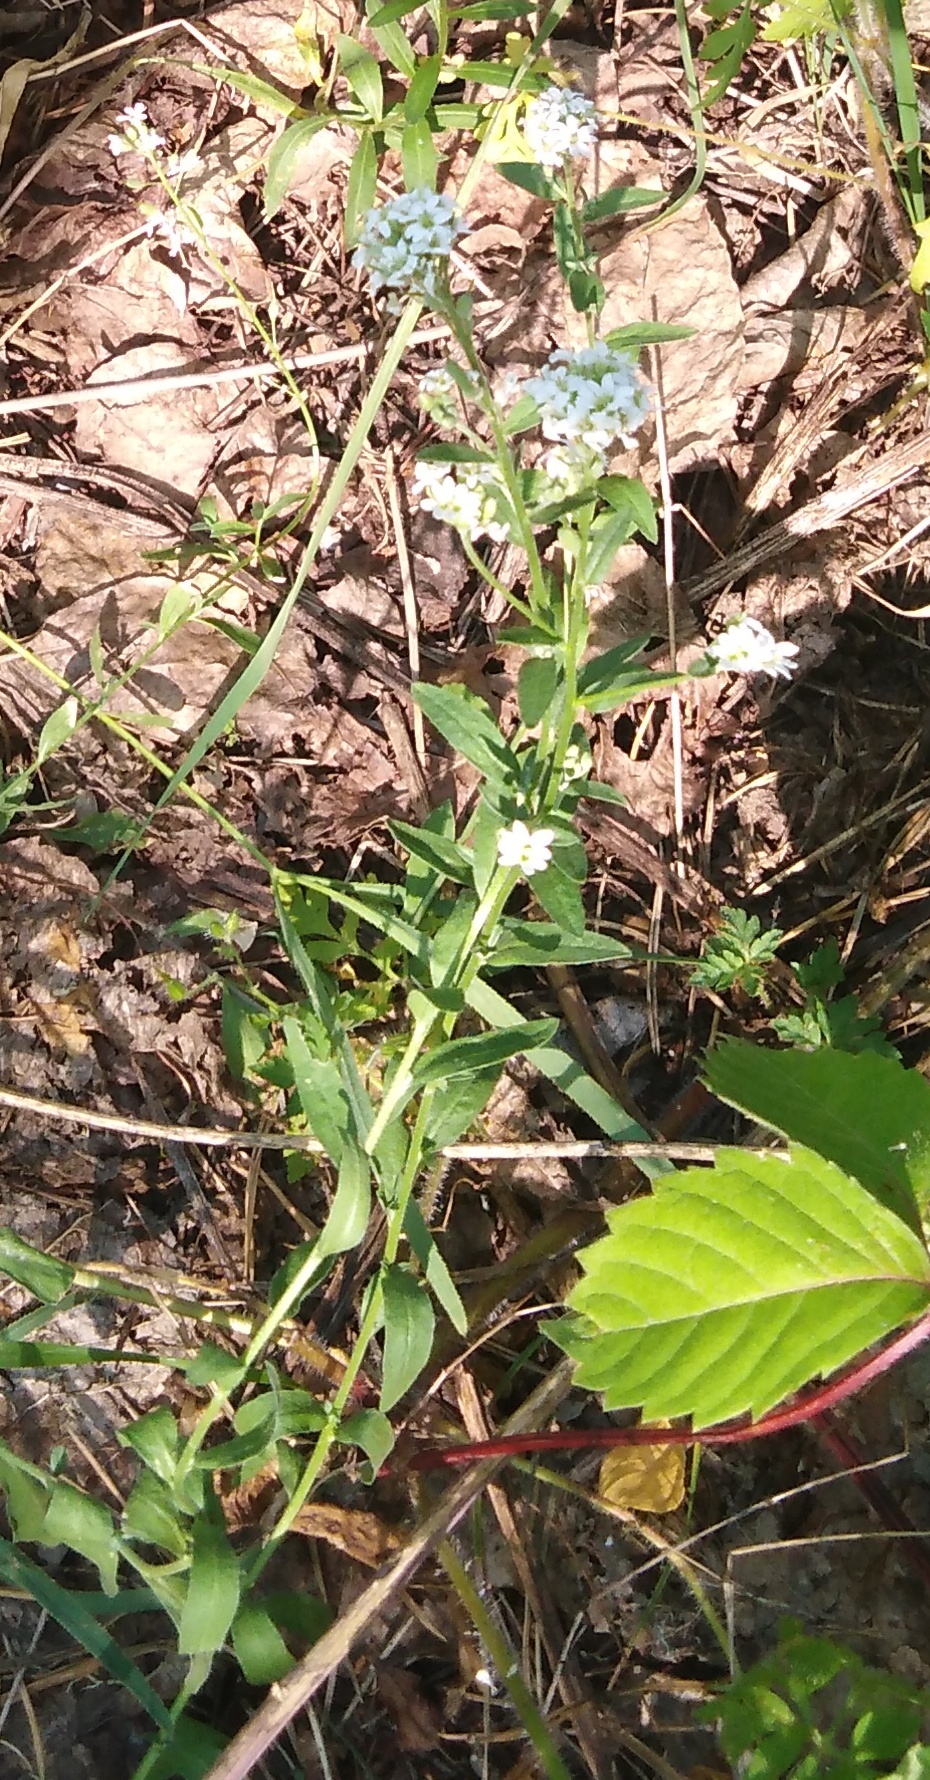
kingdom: Plantae
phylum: Tracheophyta
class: Magnoliopsida
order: Brassicales
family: Brassicaceae
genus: Berteroa
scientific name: Berteroa incana
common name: Hoary alison
